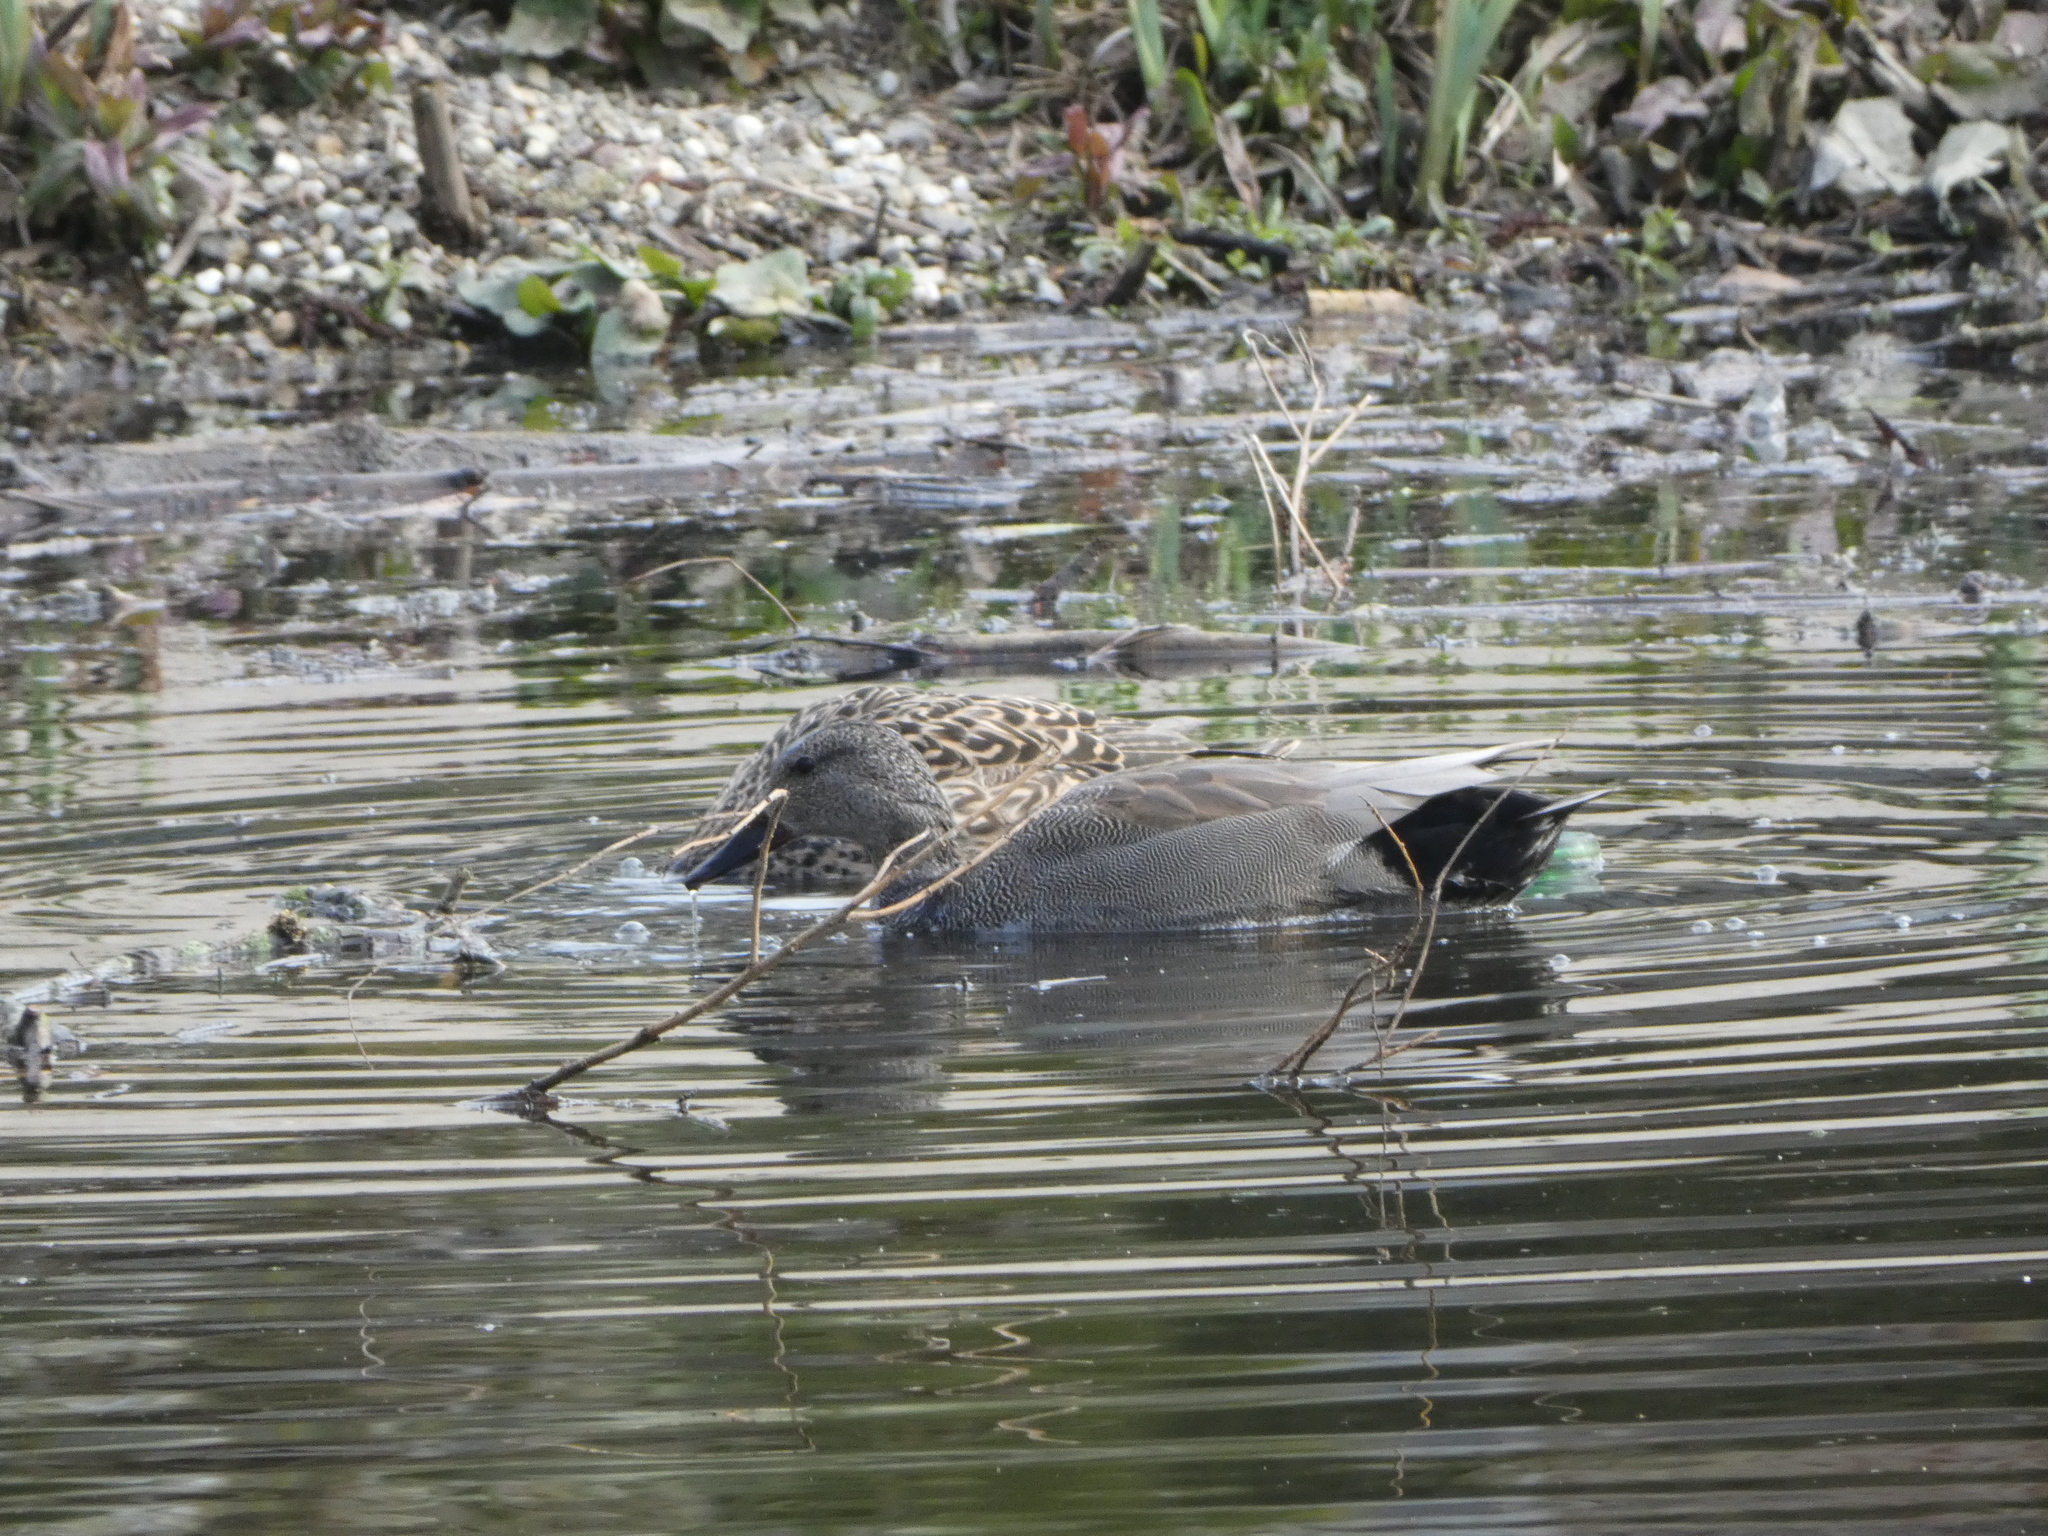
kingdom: Animalia
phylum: Chordata
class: Aves
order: Anseriformes
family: Anatidae
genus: Mareca
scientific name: Mareca strepera
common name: Gadwall
